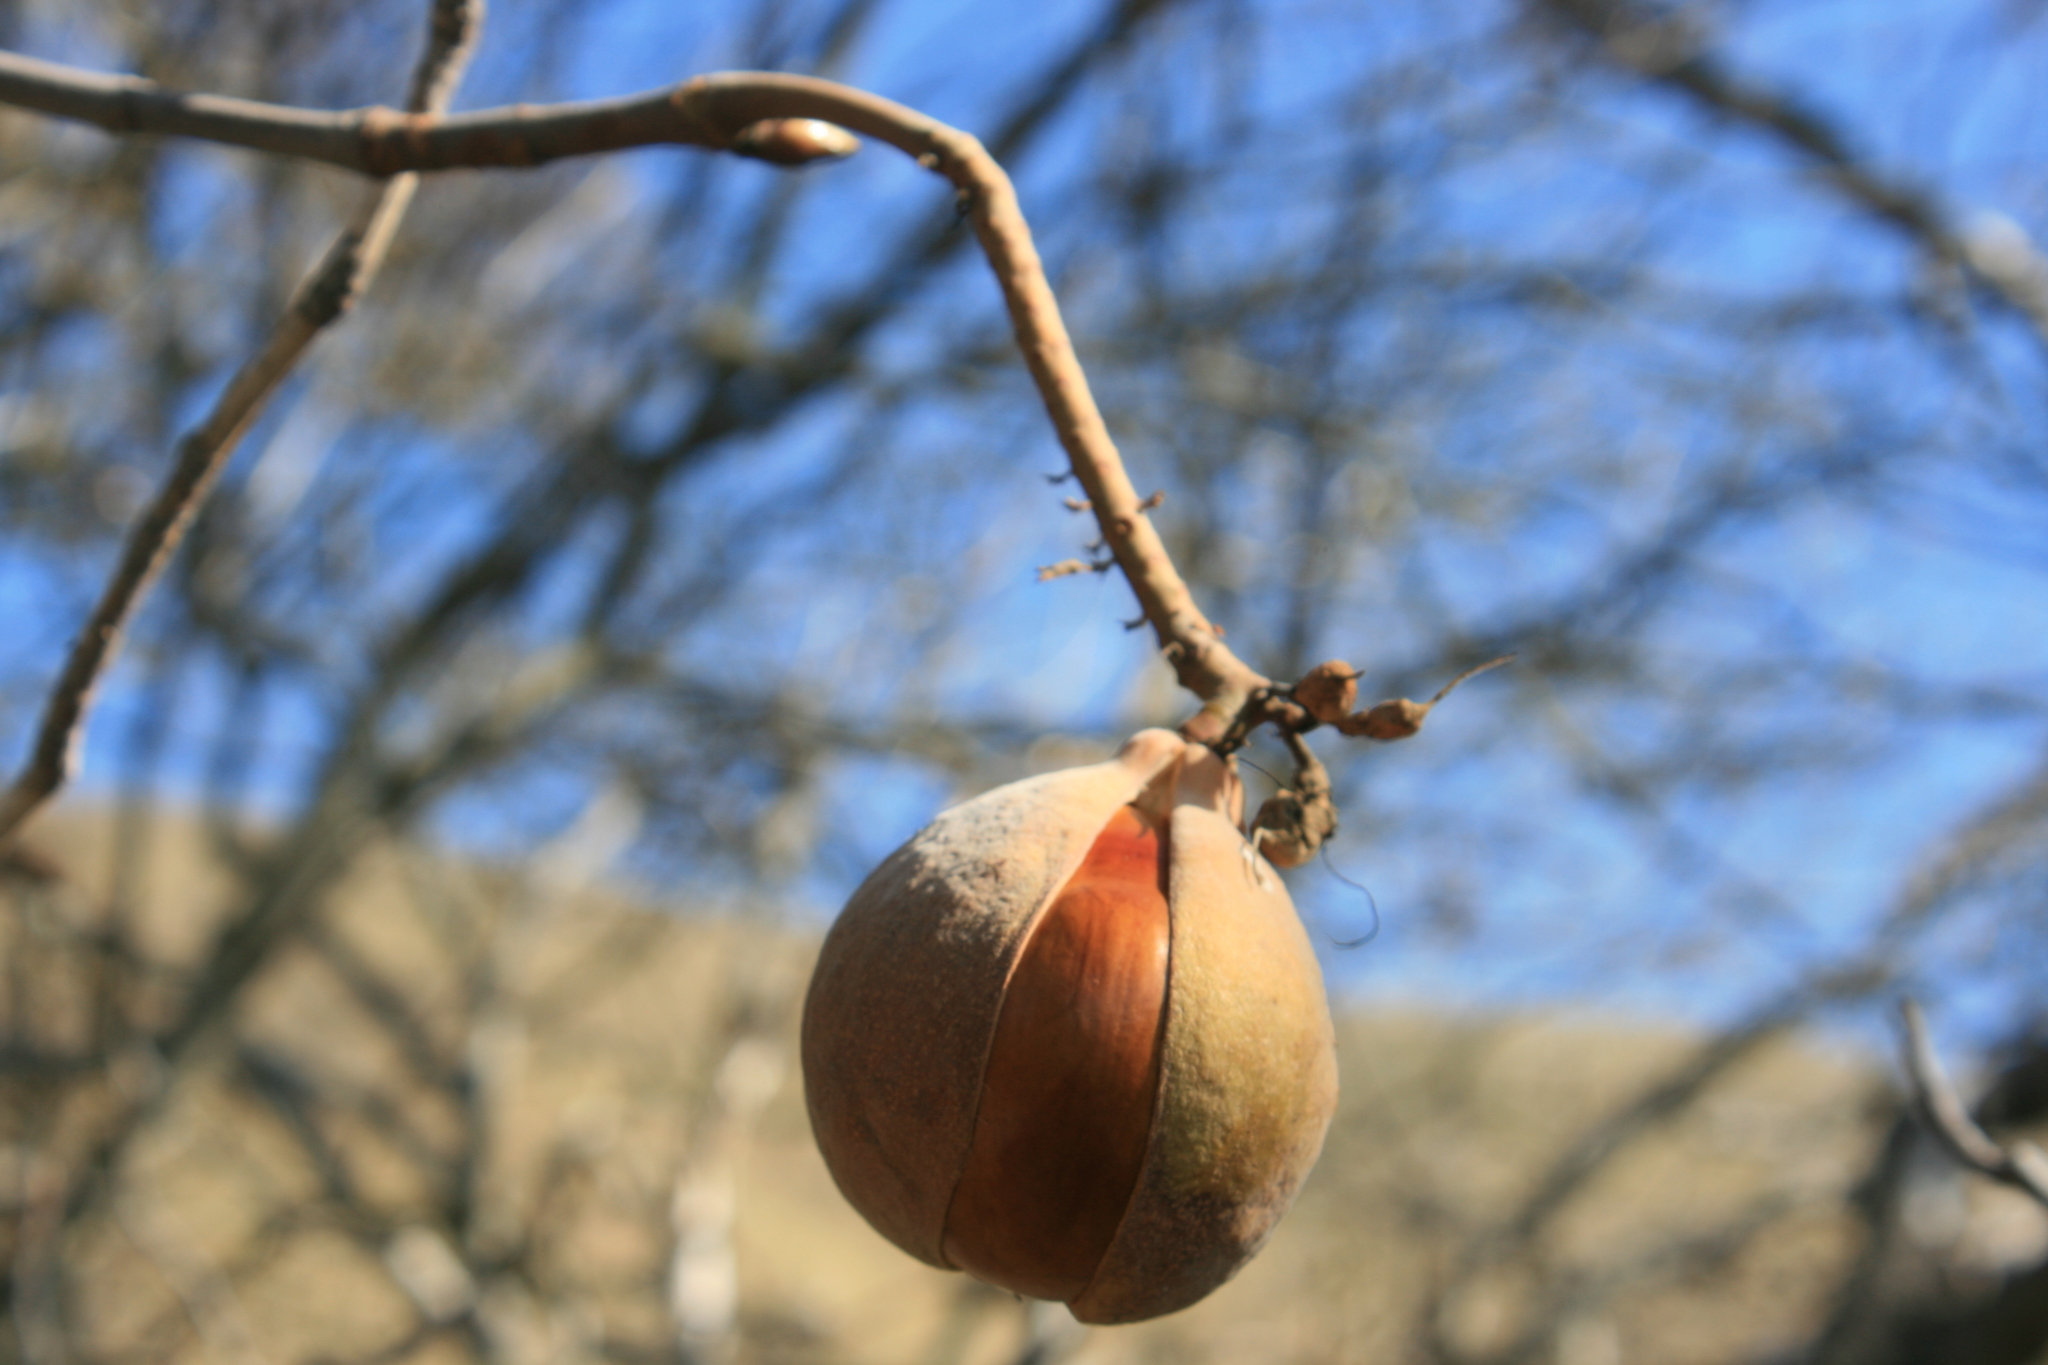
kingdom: Plantae
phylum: Tracheophyta
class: Magnoliopsida
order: Sapindales
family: Sapindaceae
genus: Aesculus
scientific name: Aesculus californica
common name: California buckeye
